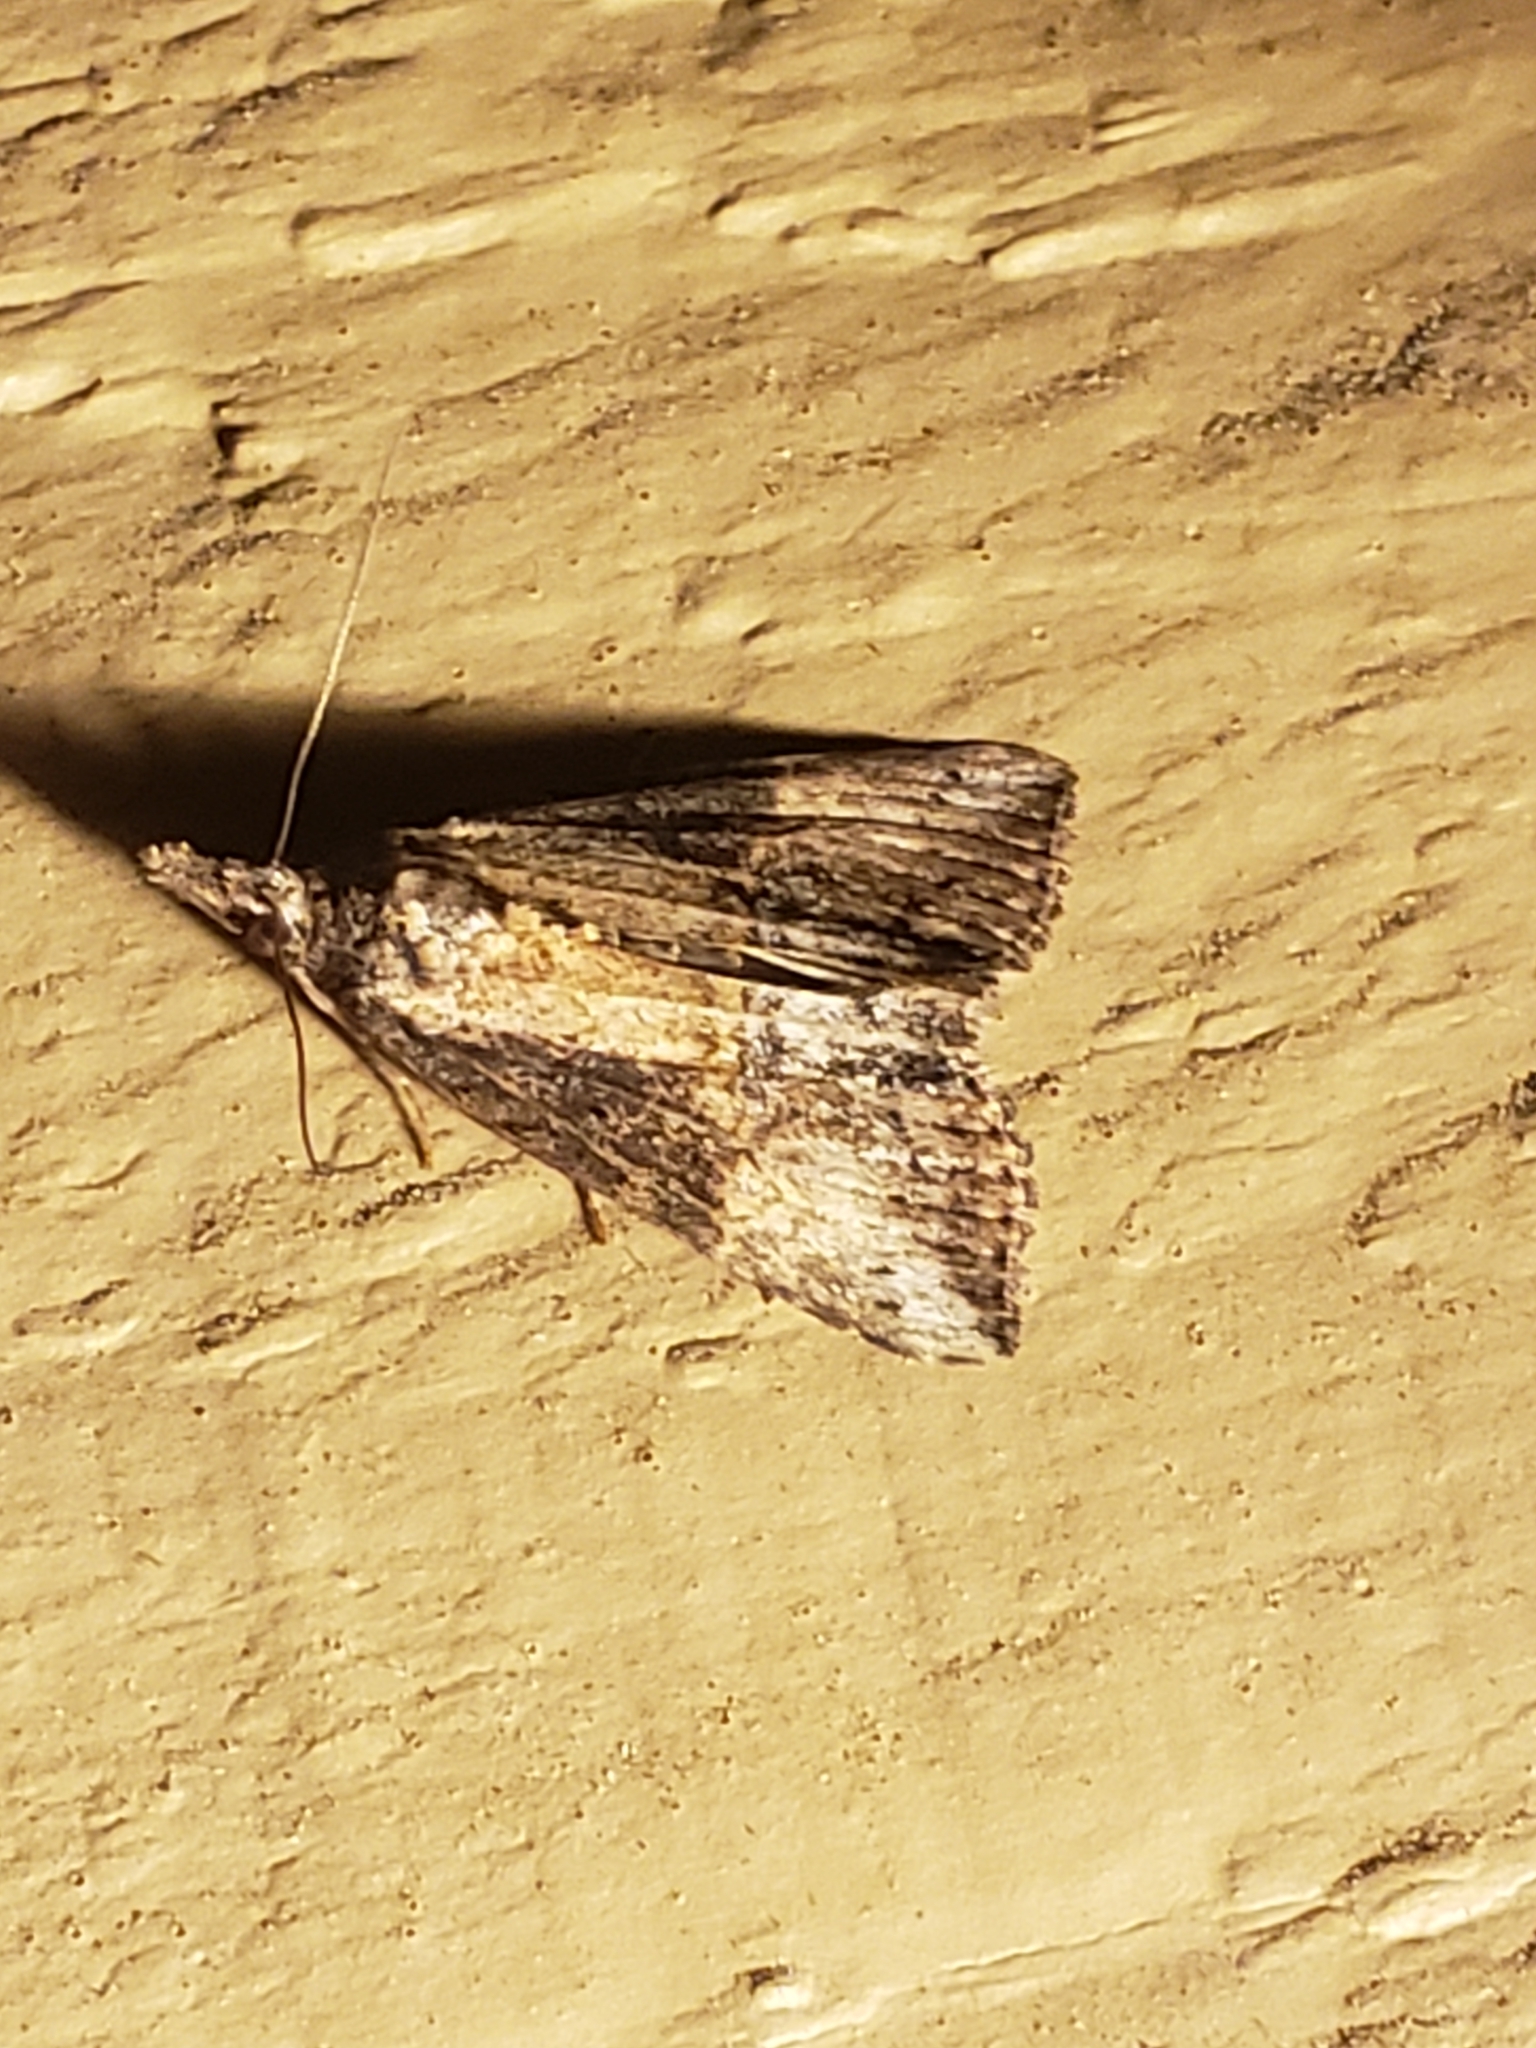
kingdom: Animalia
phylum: Arthropoda
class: Insecta
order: Lepidoptera
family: Erebidae
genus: Hypena
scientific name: Hypena scabra
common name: Green cloverworm
